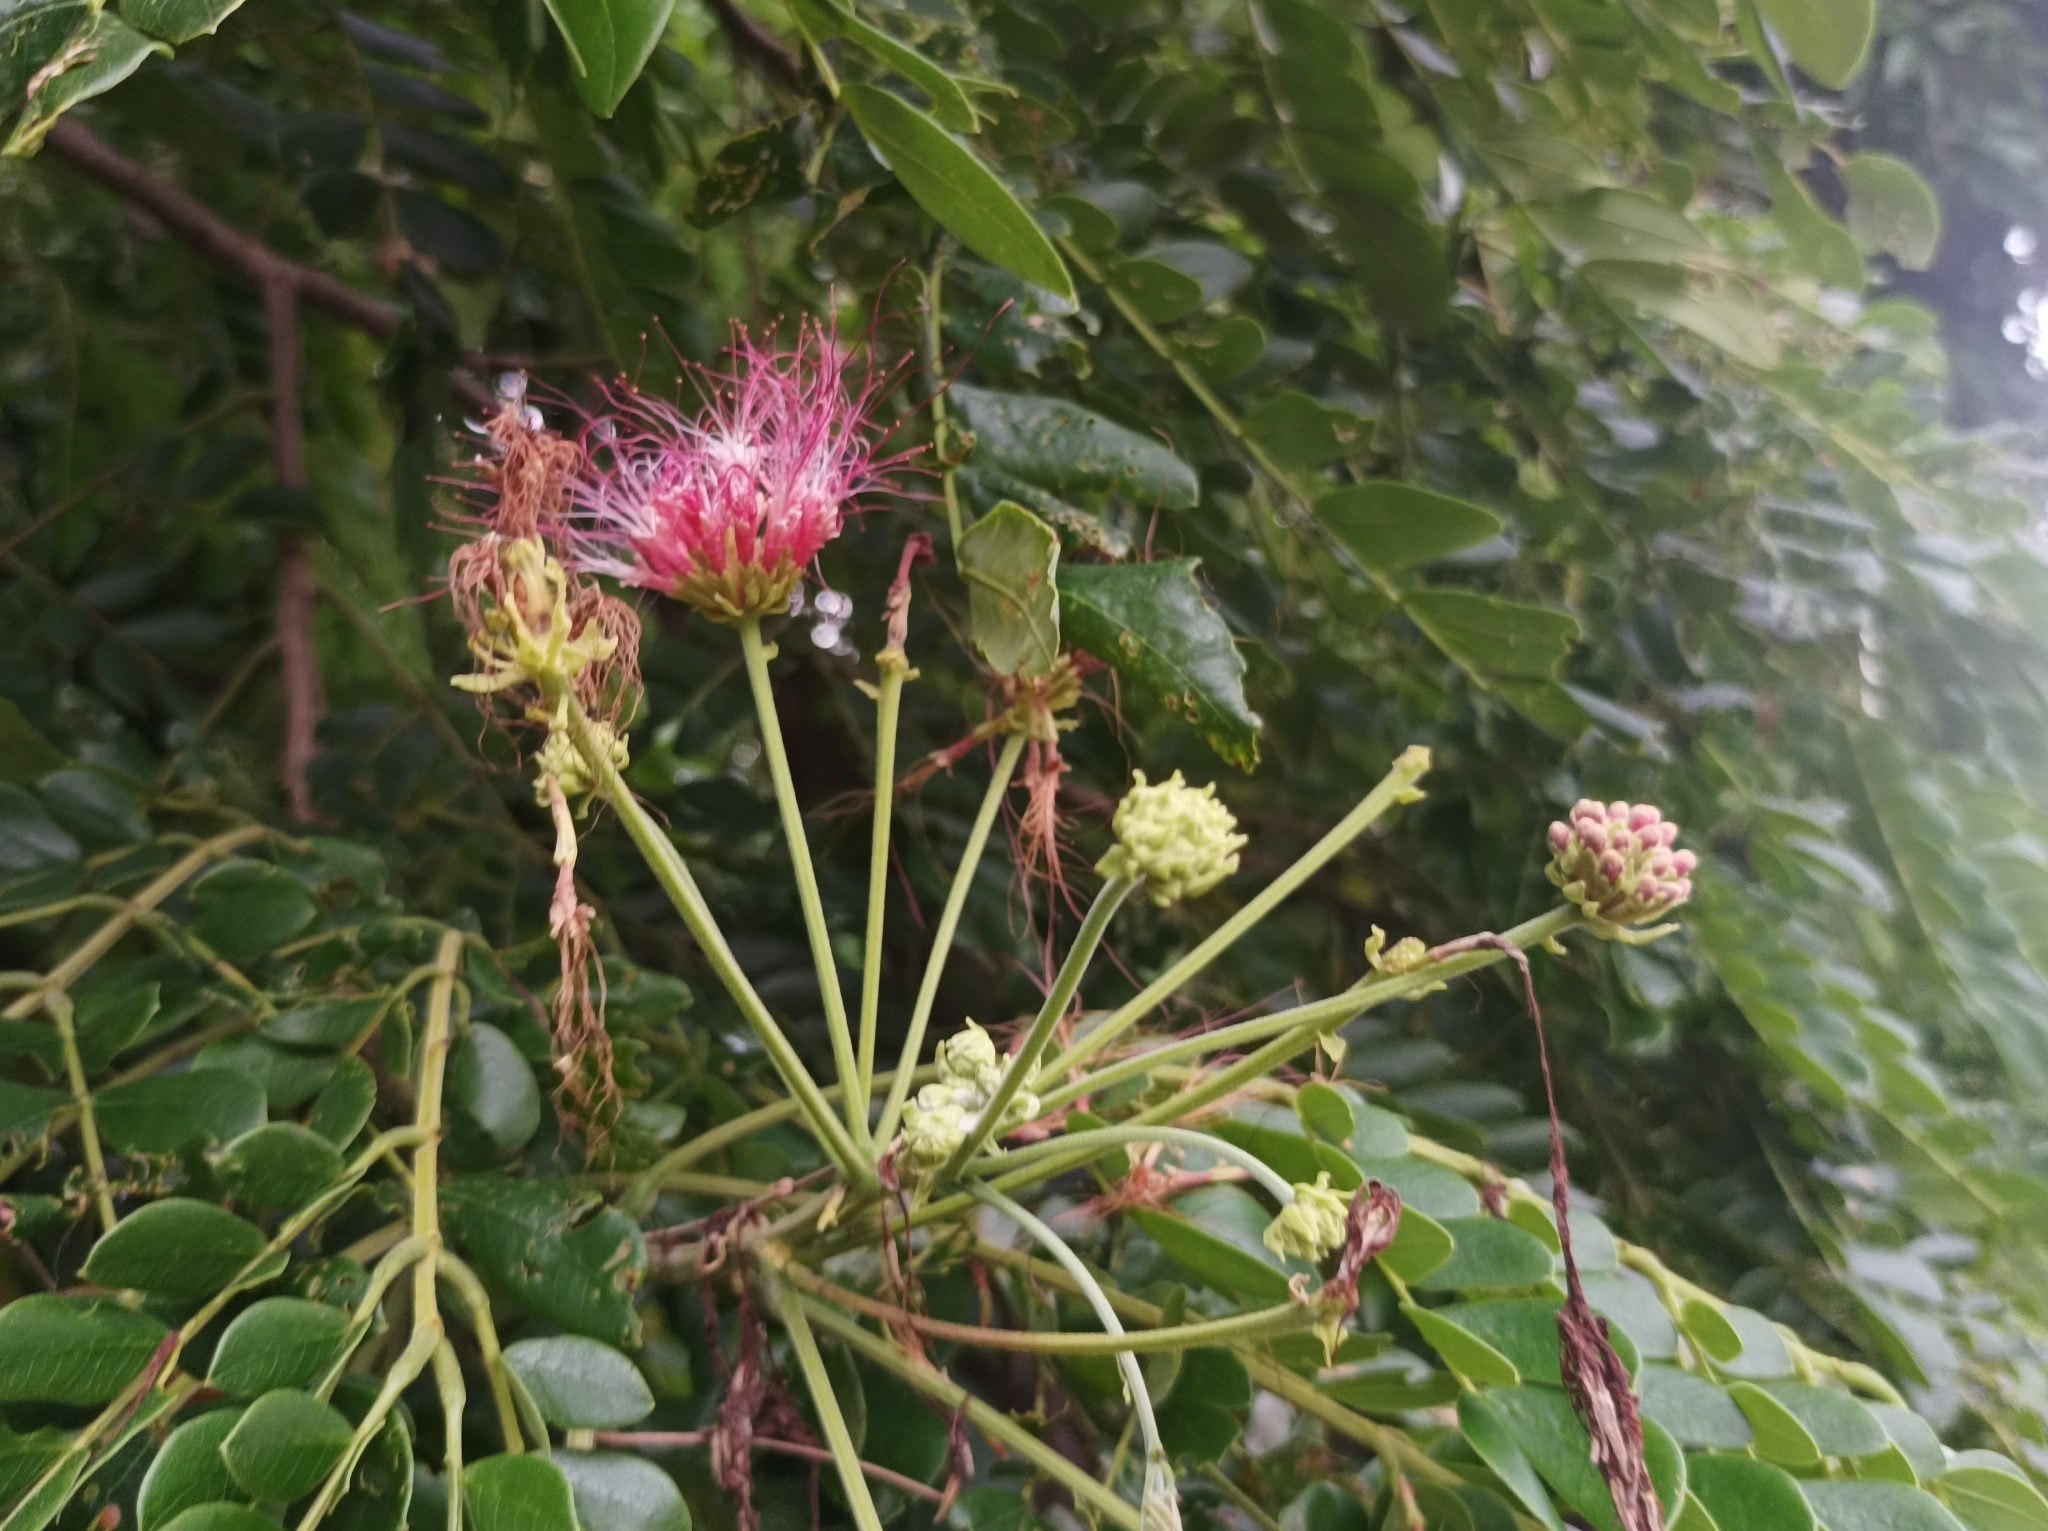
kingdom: Plantae
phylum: Tracheophyta
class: Magnoliopsida
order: Fabales
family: Fabaceae
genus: Samanea
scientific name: Samanea saman
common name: Raintree
